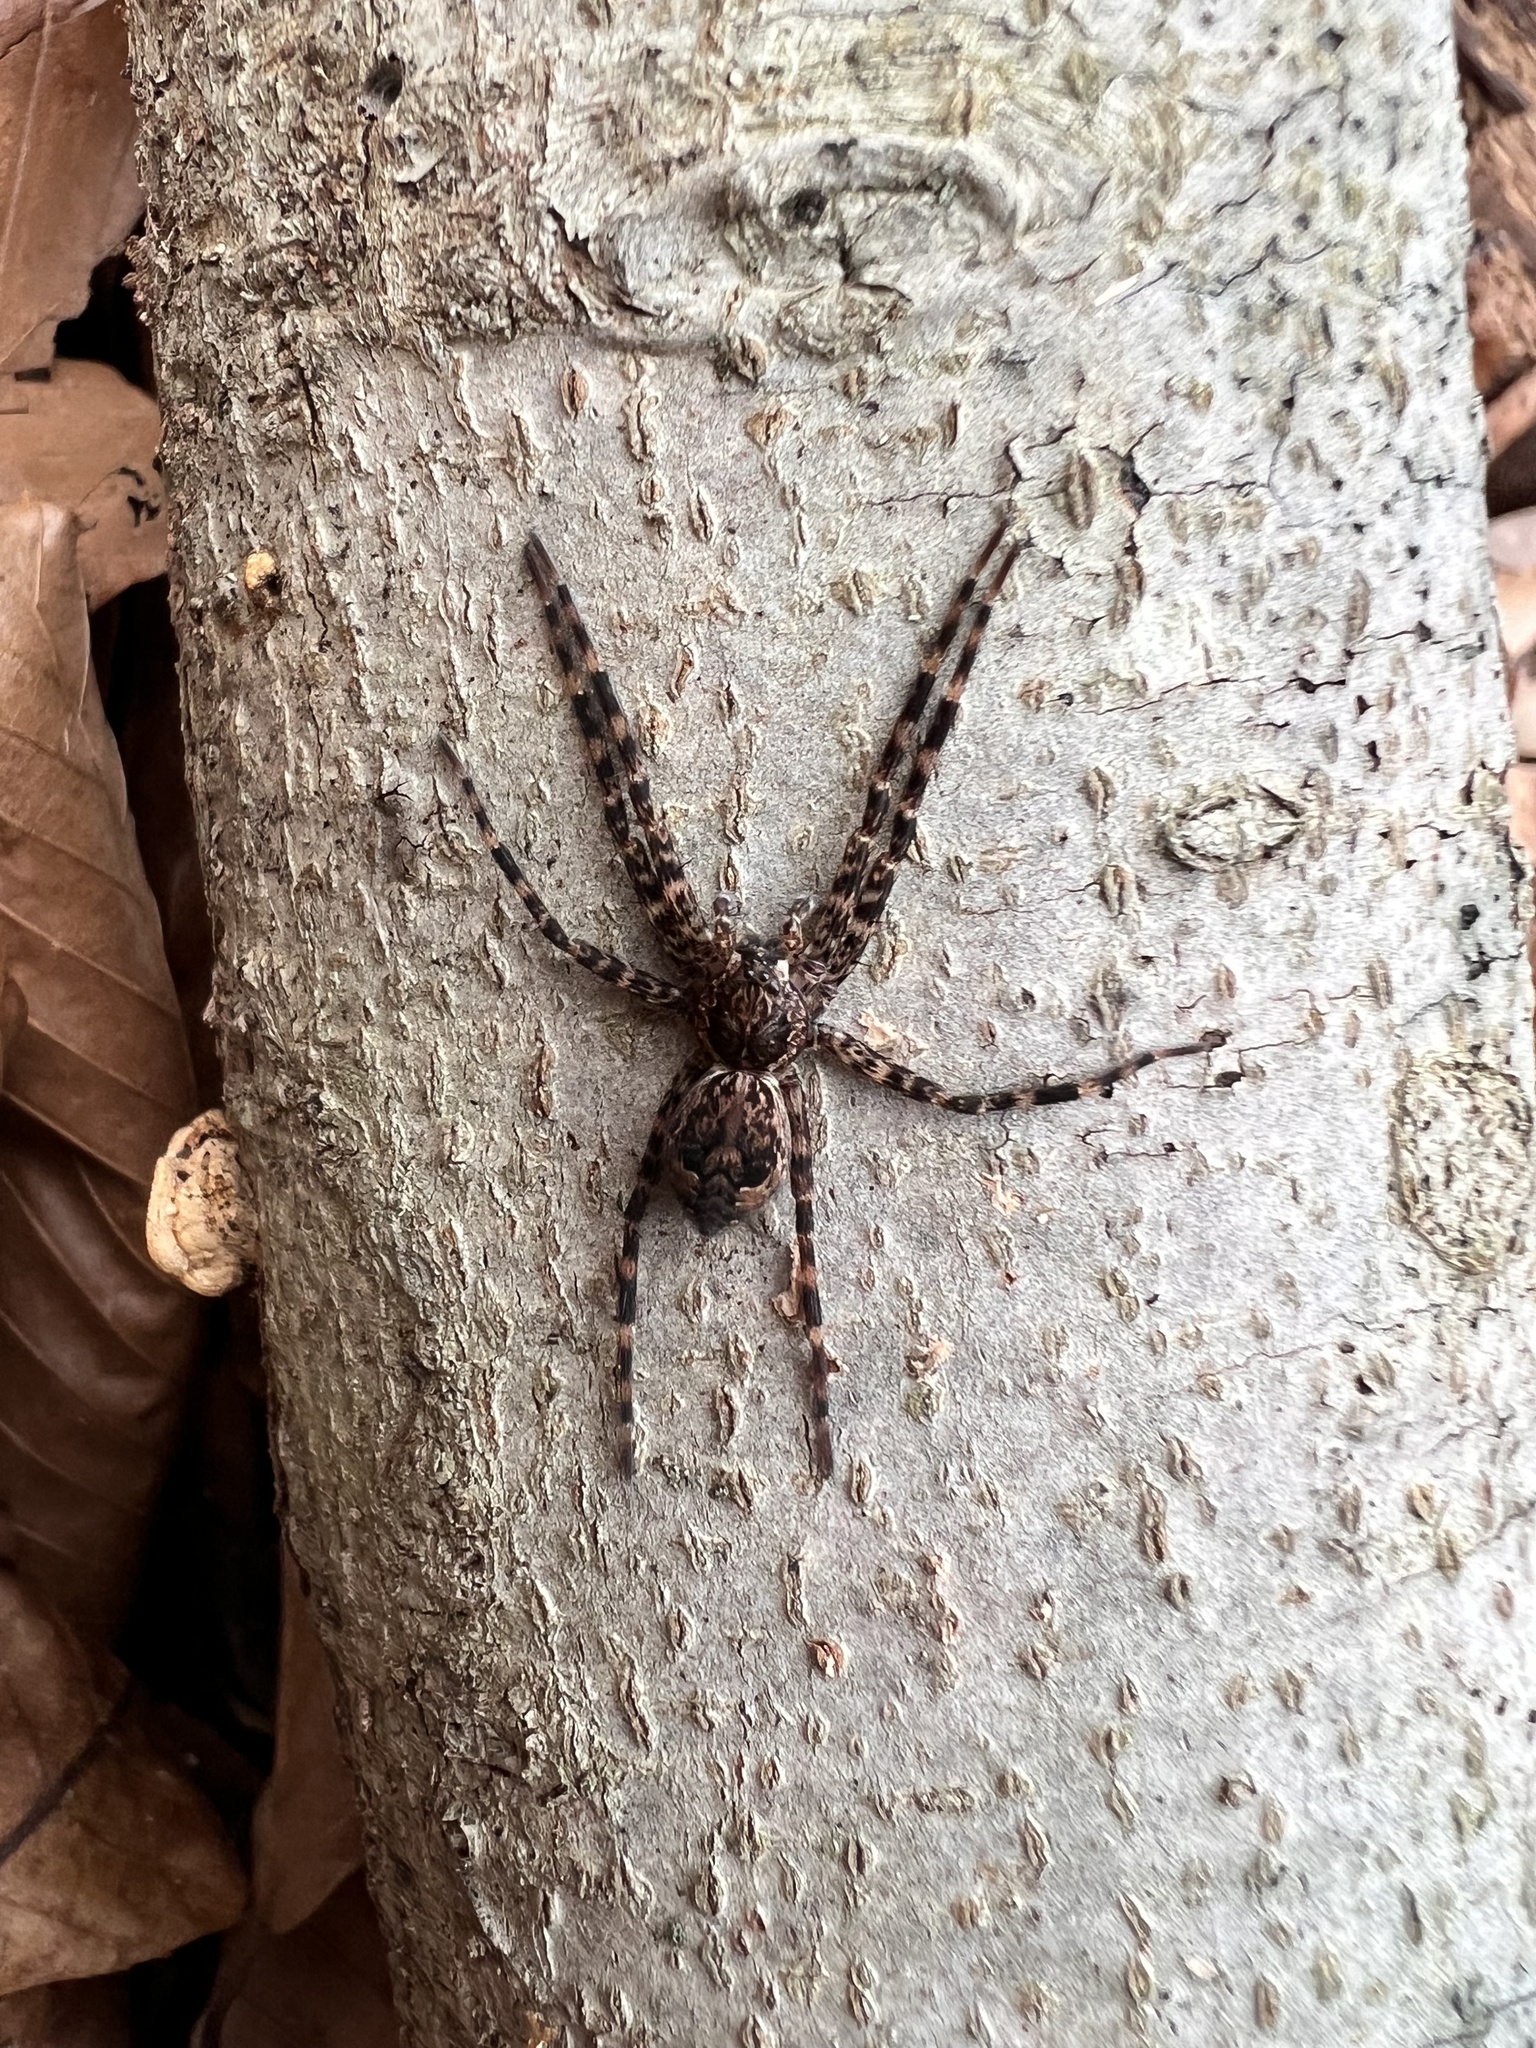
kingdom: Animalia
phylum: Arthropoda
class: Arachnida
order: Araneae
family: Pisauridae
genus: Dolomedes
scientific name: Dolomedes tenebrosus
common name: Dark fishing spider
